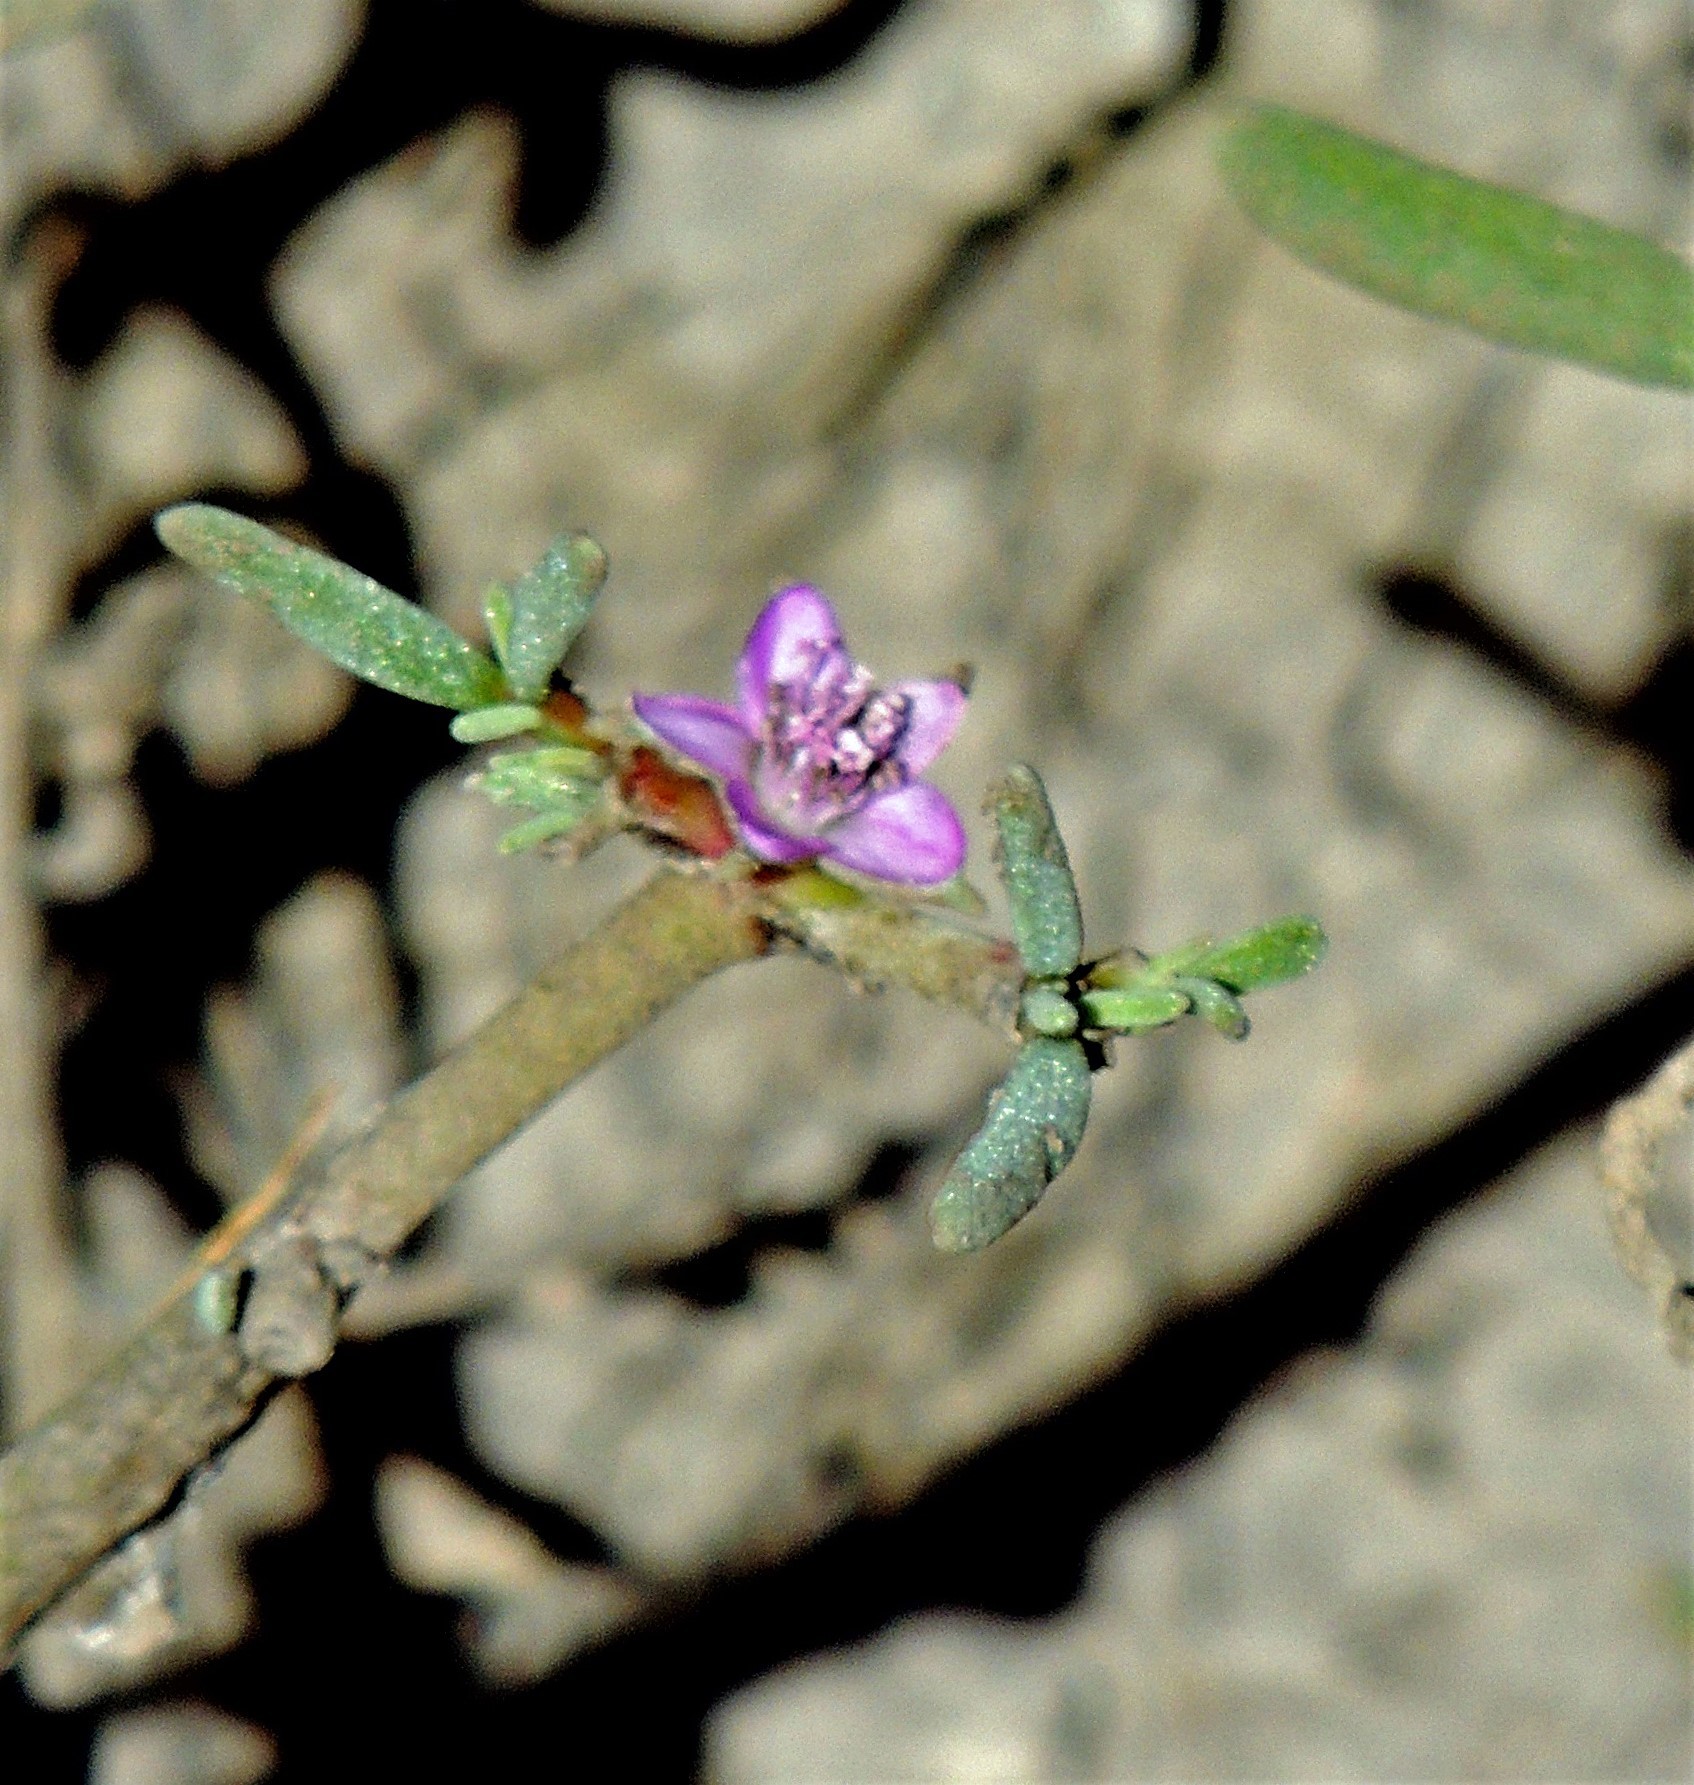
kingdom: Plantae
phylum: Tracheophyta
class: Magnoliopsida
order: Caryophyllales
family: Aizoaceae
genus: Sesuvium
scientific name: Sesuvium portulacastrum
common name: Sea-purslane
